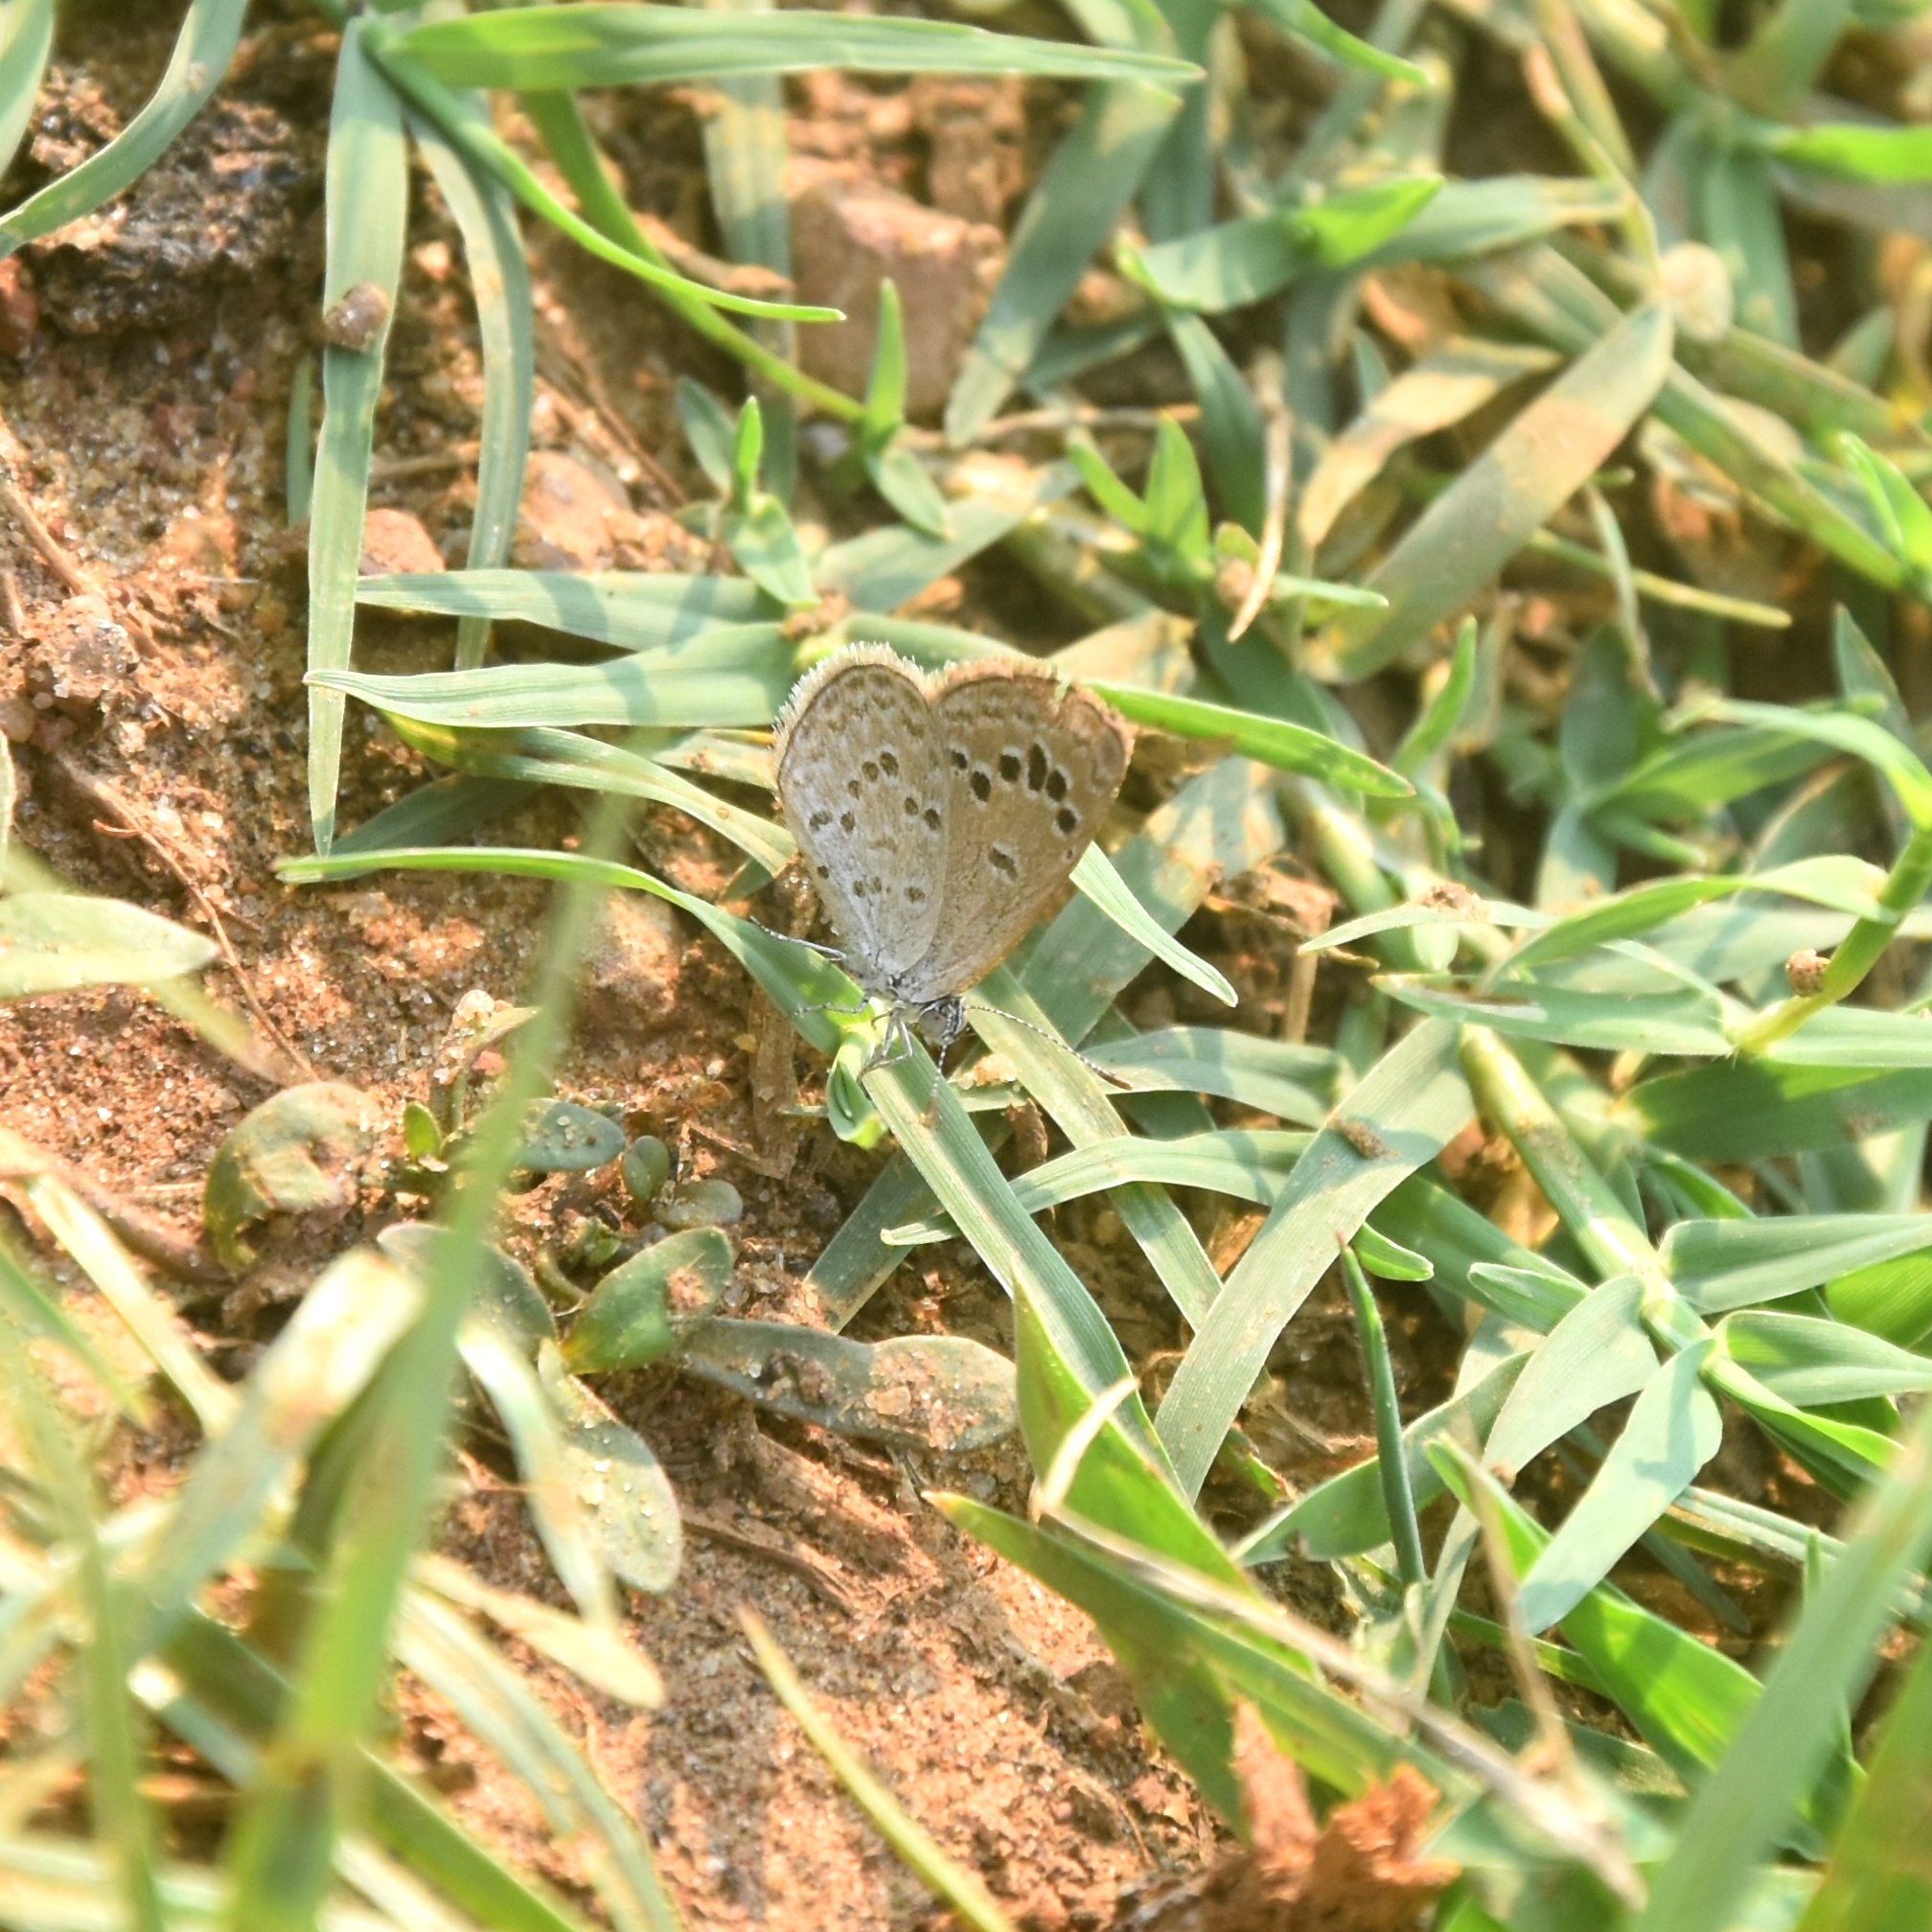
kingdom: Animalia
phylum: Arthropoda
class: Insecta
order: Lepidoptera
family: Lycaenidae
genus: Zizina
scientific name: Zizina otis
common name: Lesser grass blue
